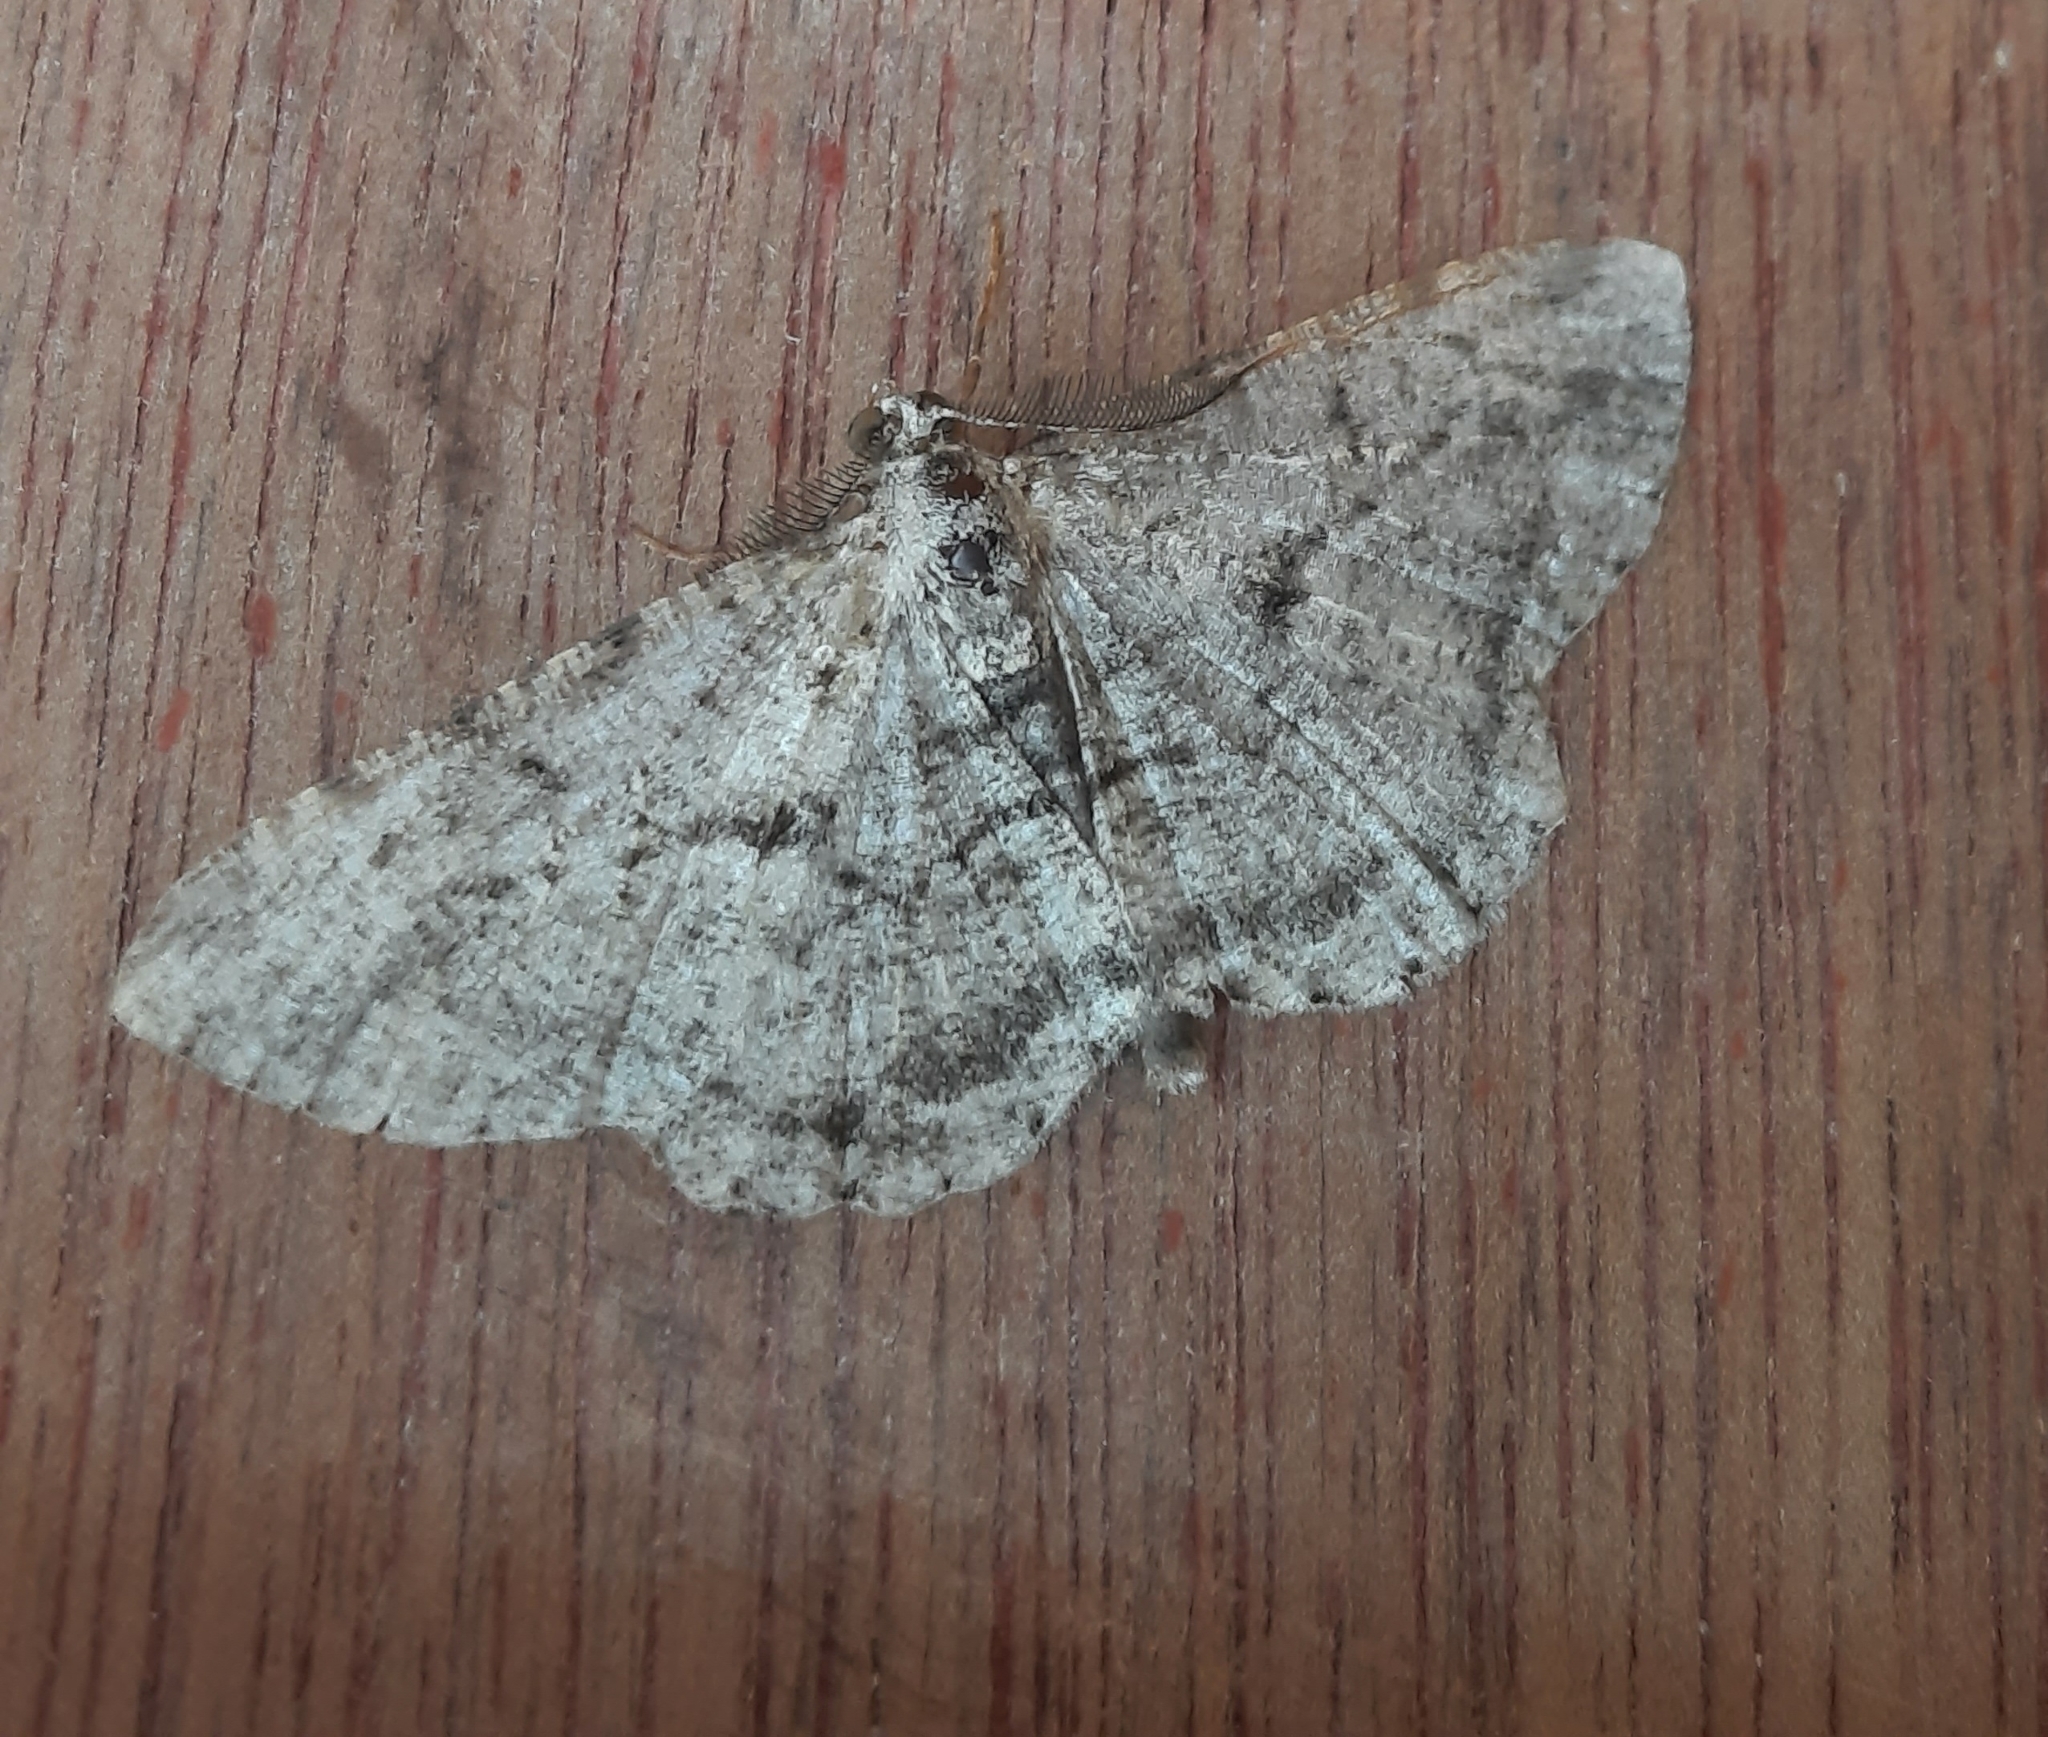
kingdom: Animalia
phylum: Arthropoda
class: Insecta
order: Lepidoptera
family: Geometridae
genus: Peribatodes
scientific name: Peribatodes rhomboidaria
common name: Willow beauty
